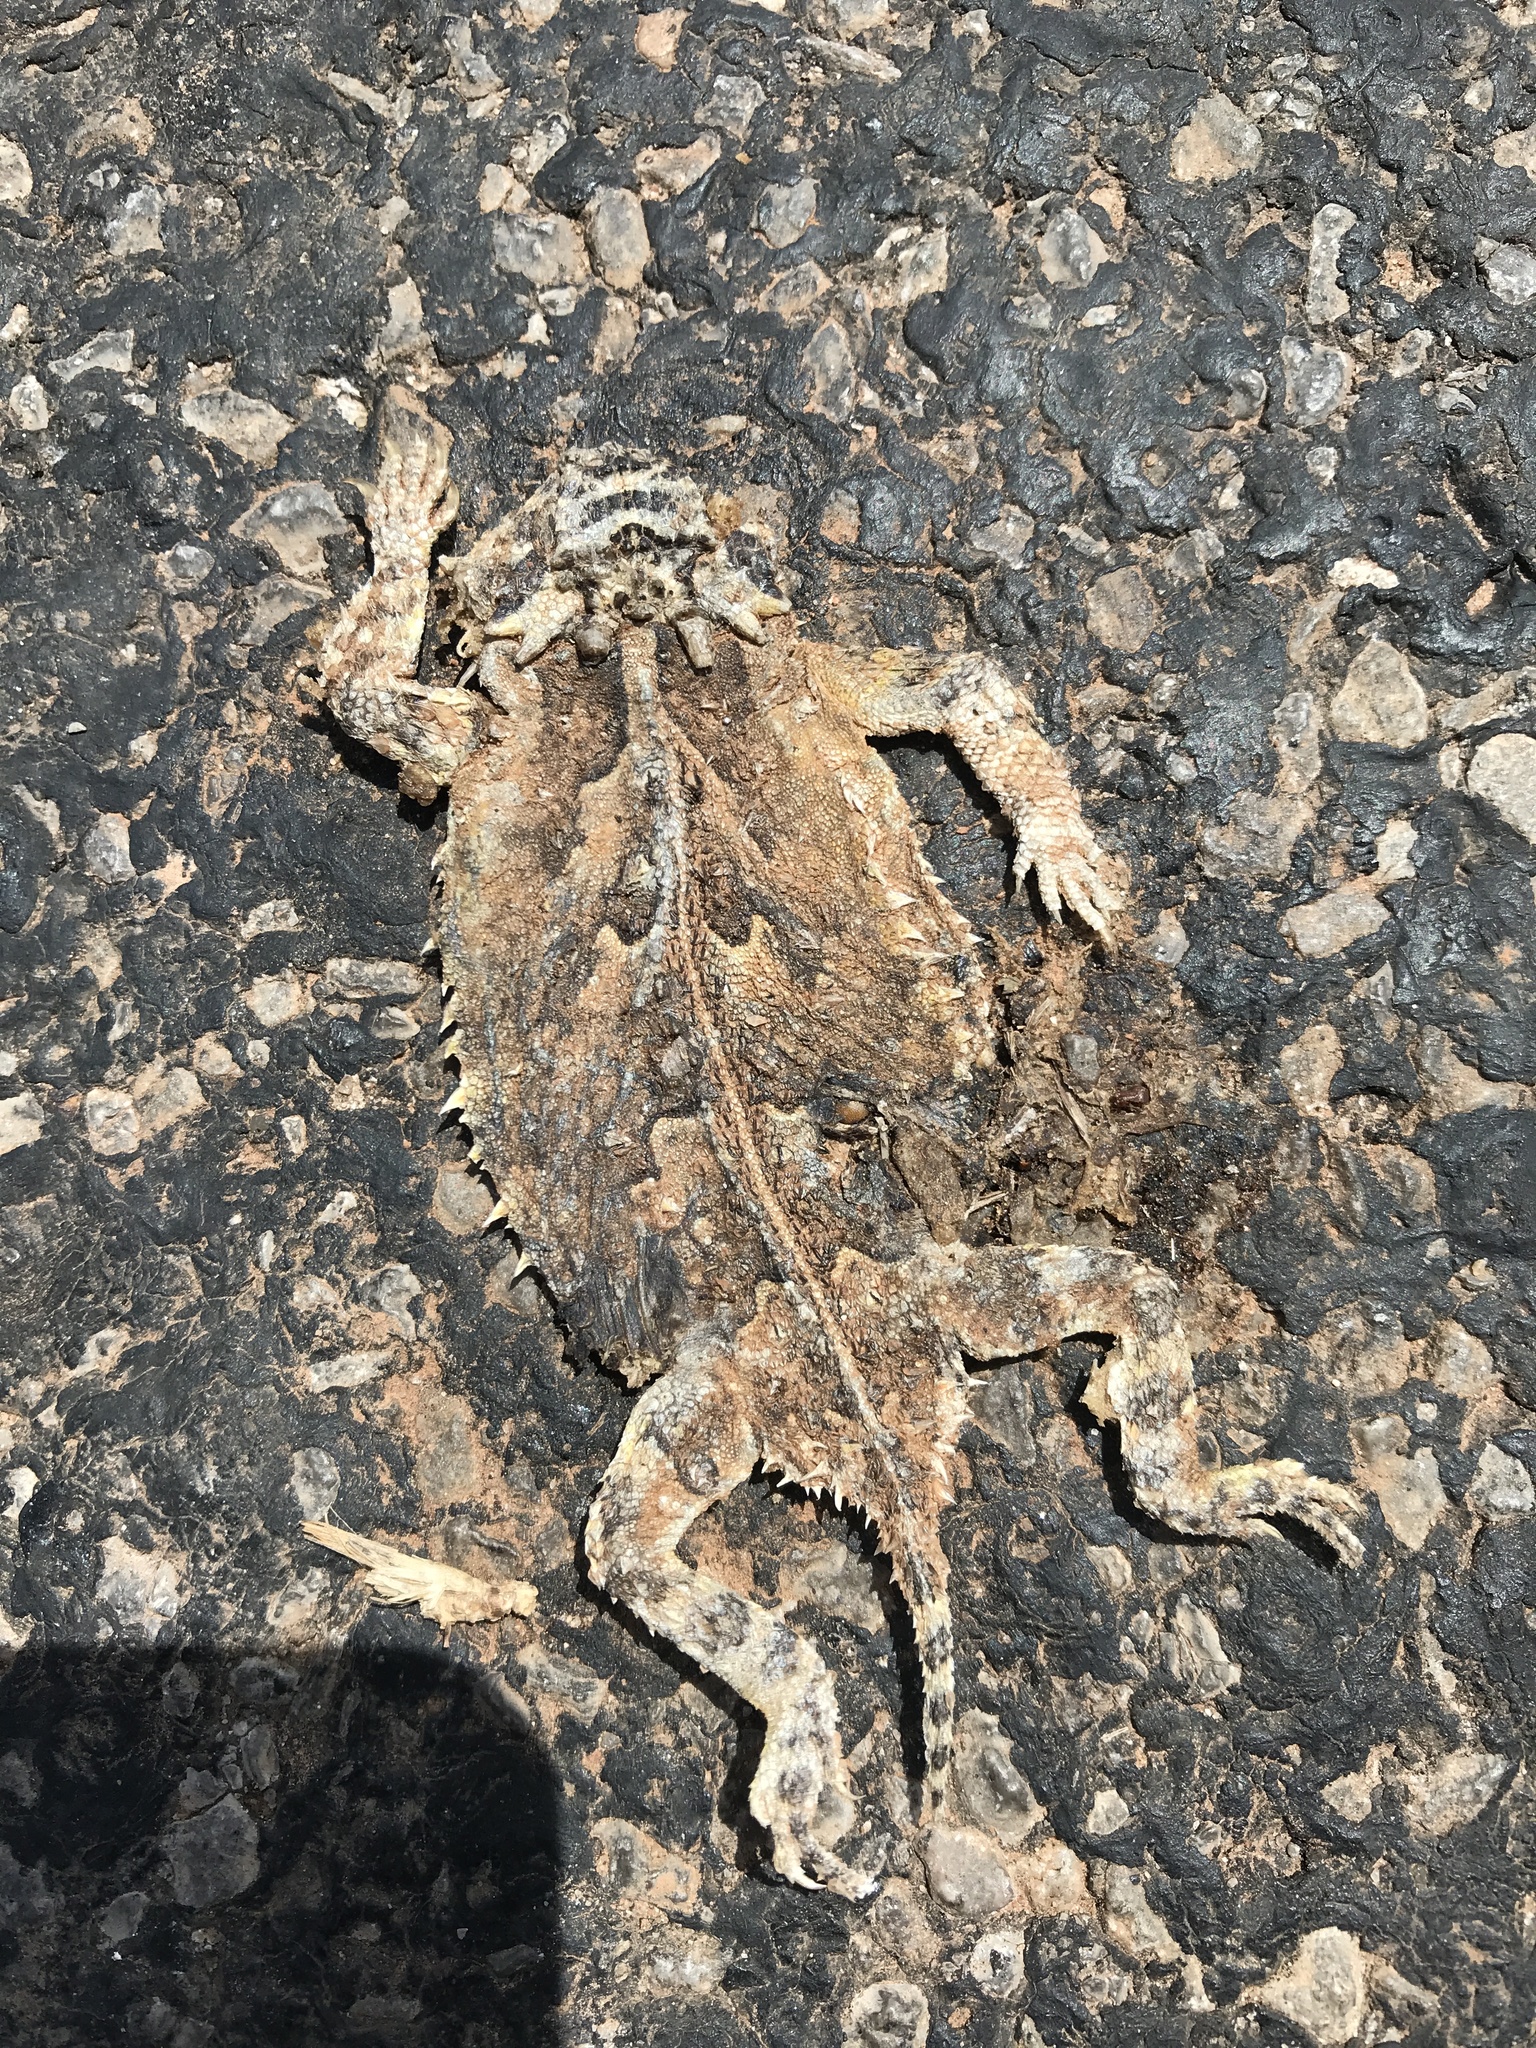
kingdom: Animalia
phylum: Chordata
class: Squamata
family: Phrynosomatidae
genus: Phrynosoma
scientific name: Phrynosoma cornutum
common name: Texas horned lizard
